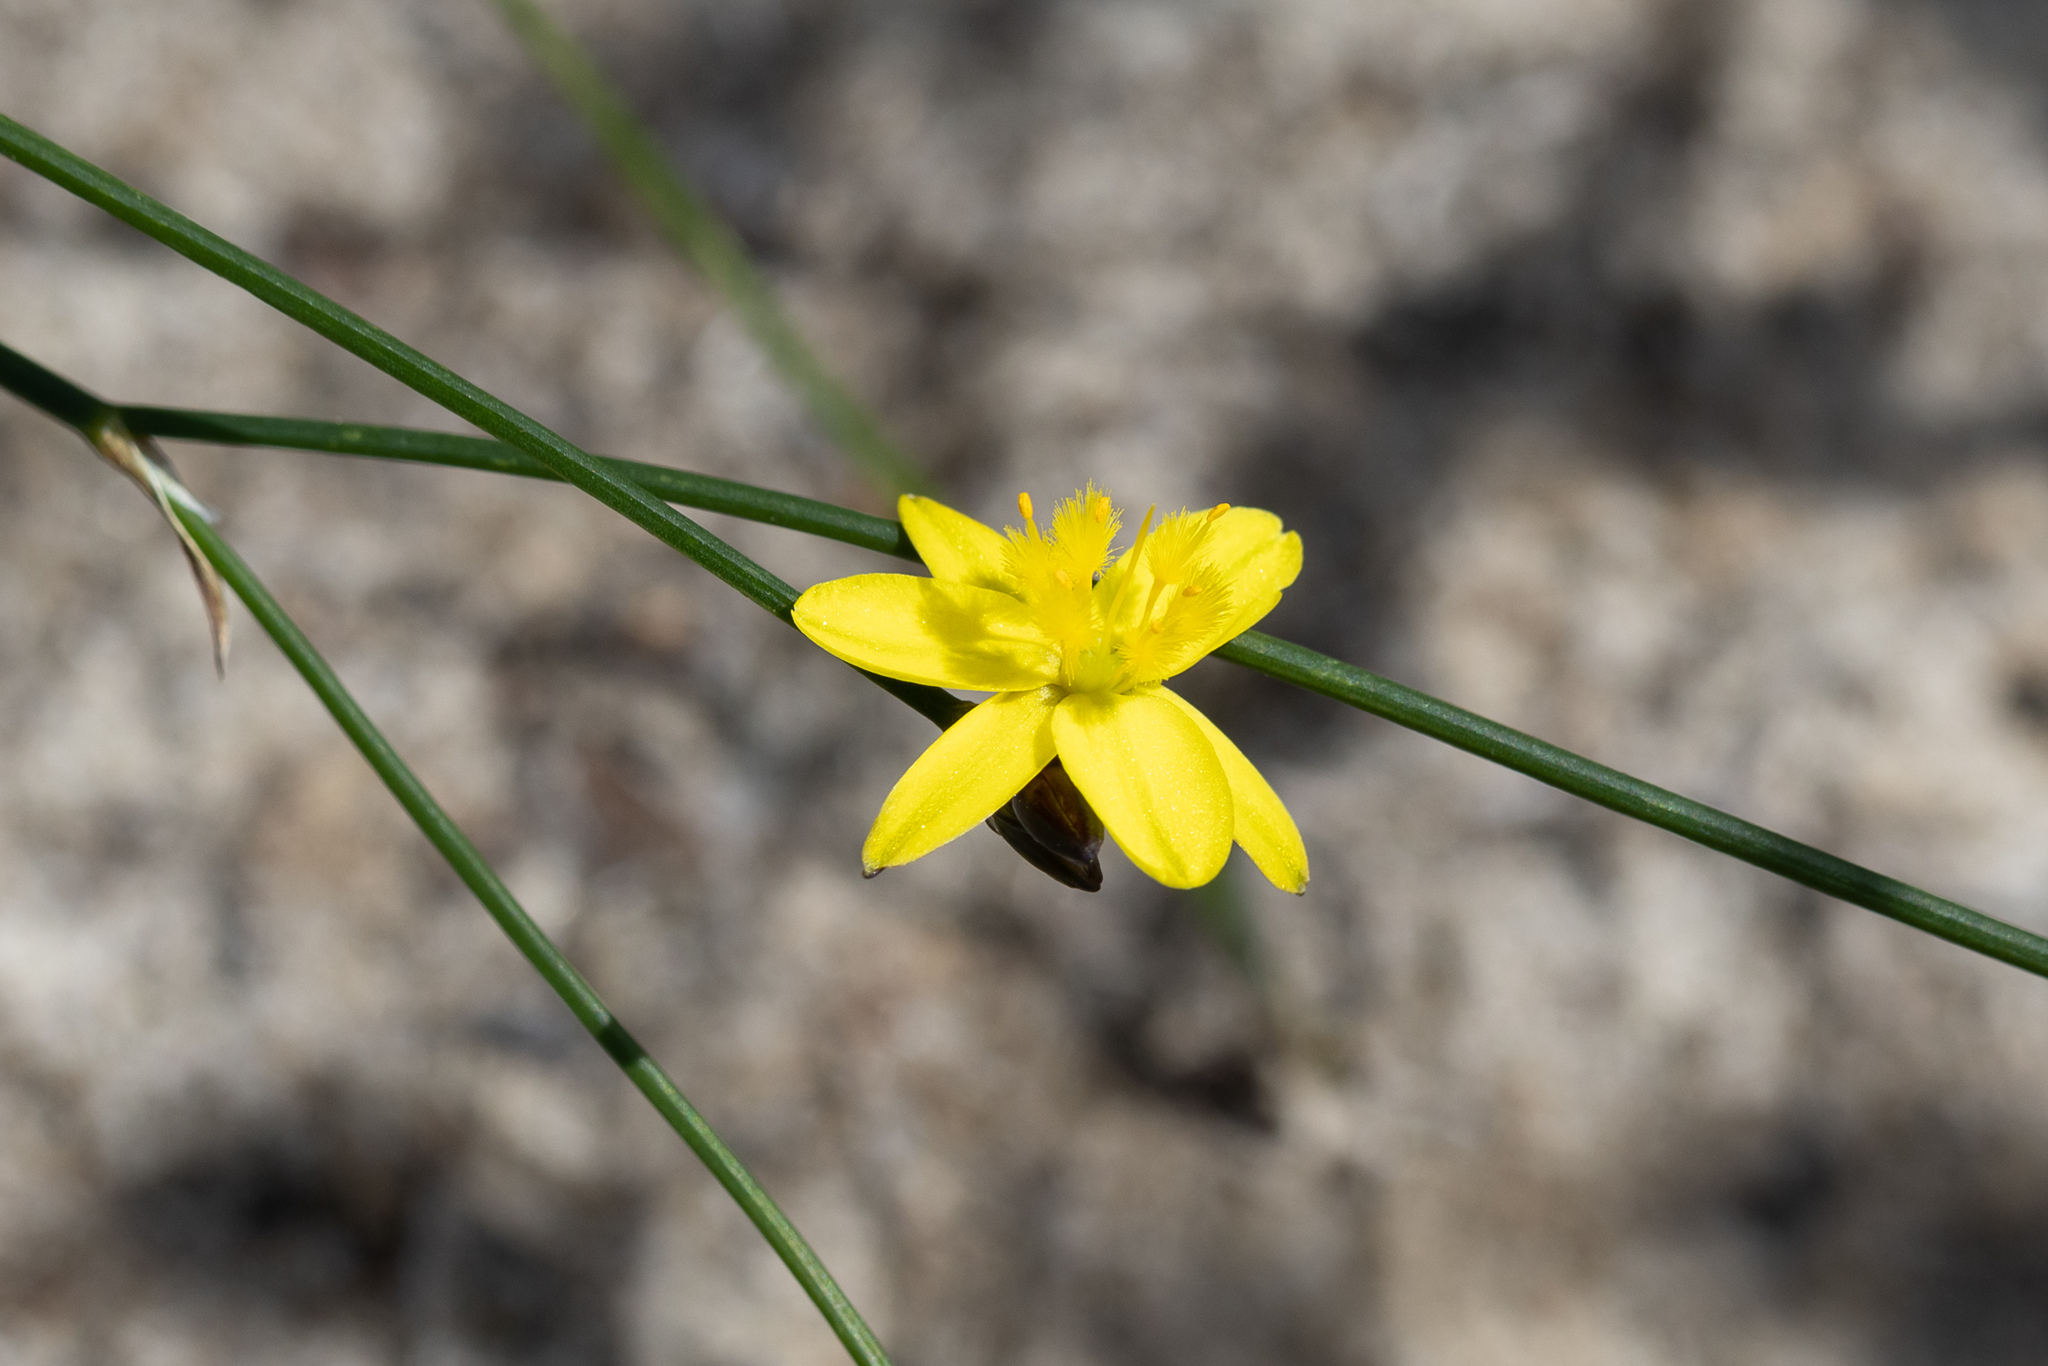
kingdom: Plantae
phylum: Tracheophyta
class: Liliopsida
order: Asparagales
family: Asphodelaceae
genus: Tricoryne
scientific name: Tricoryne elatior
